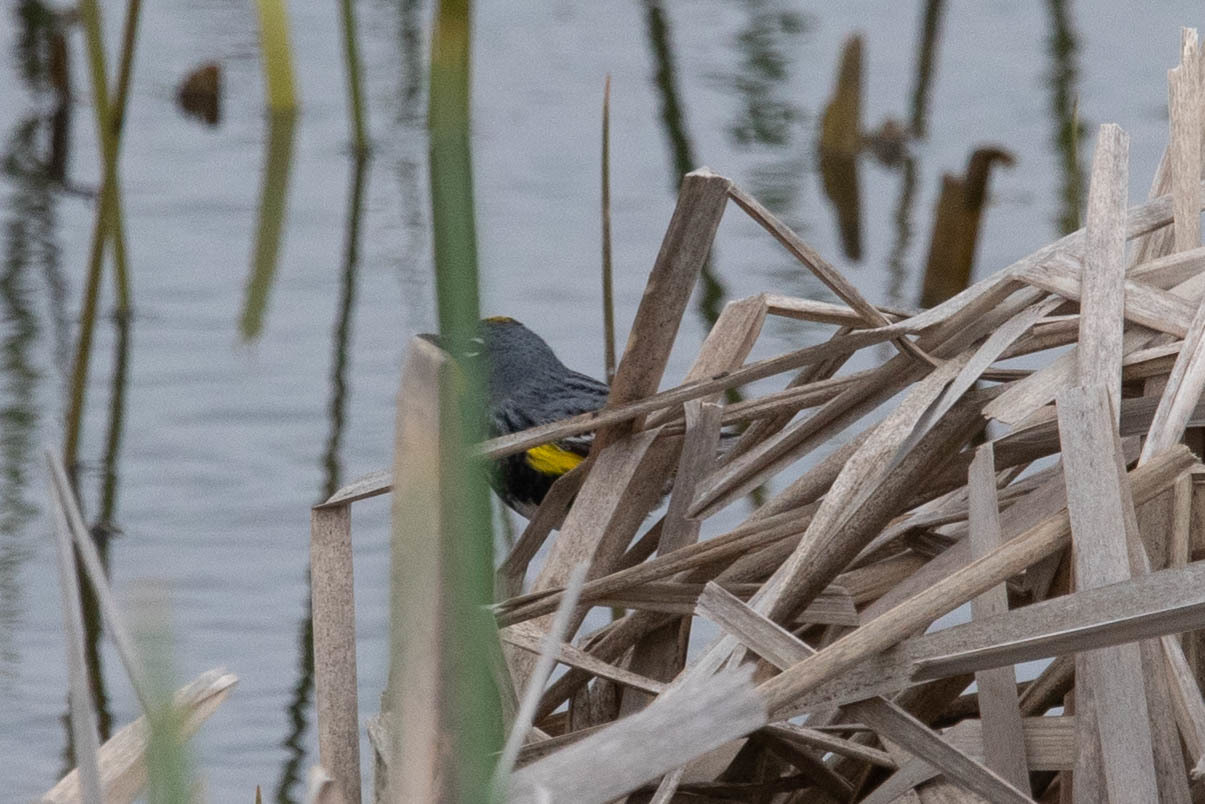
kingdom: Animalia
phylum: Chordata
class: Aves
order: Passeriformes
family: Parulidae
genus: Setophaga
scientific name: Setophaga auduboni
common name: Audubon's warbler
